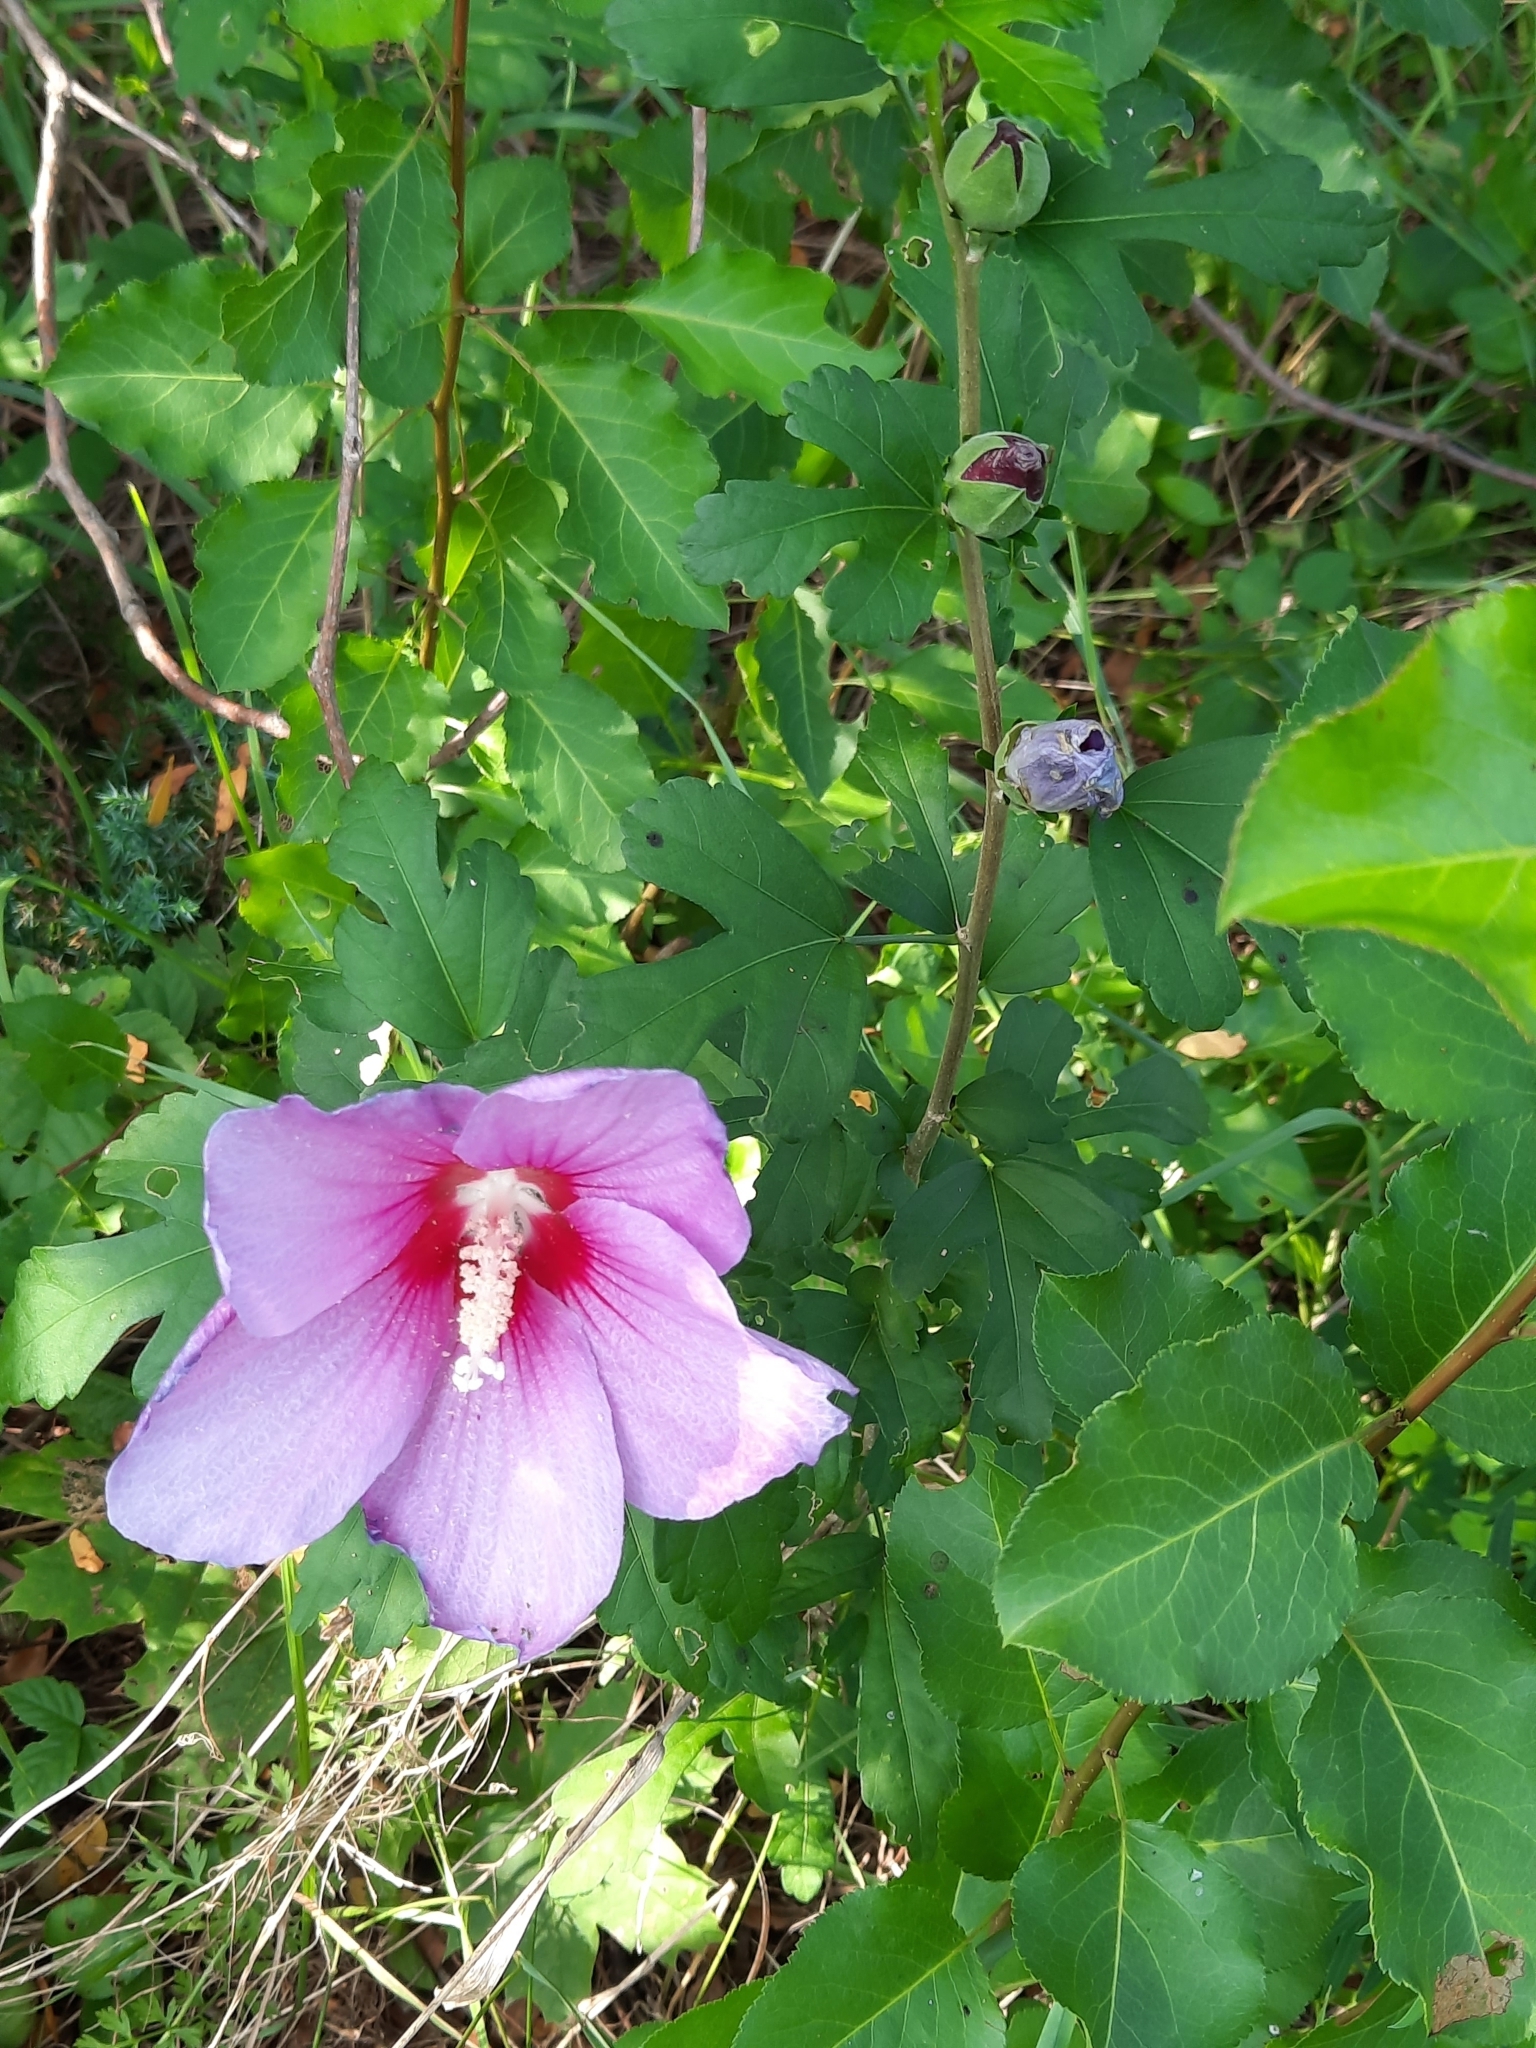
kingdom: Plantae
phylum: Tracheophyta
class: Magnoliopsida
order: Malvales
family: Malvaceae
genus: Hibiscus
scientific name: Hibiscus syriacus
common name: Syrian ketmia
